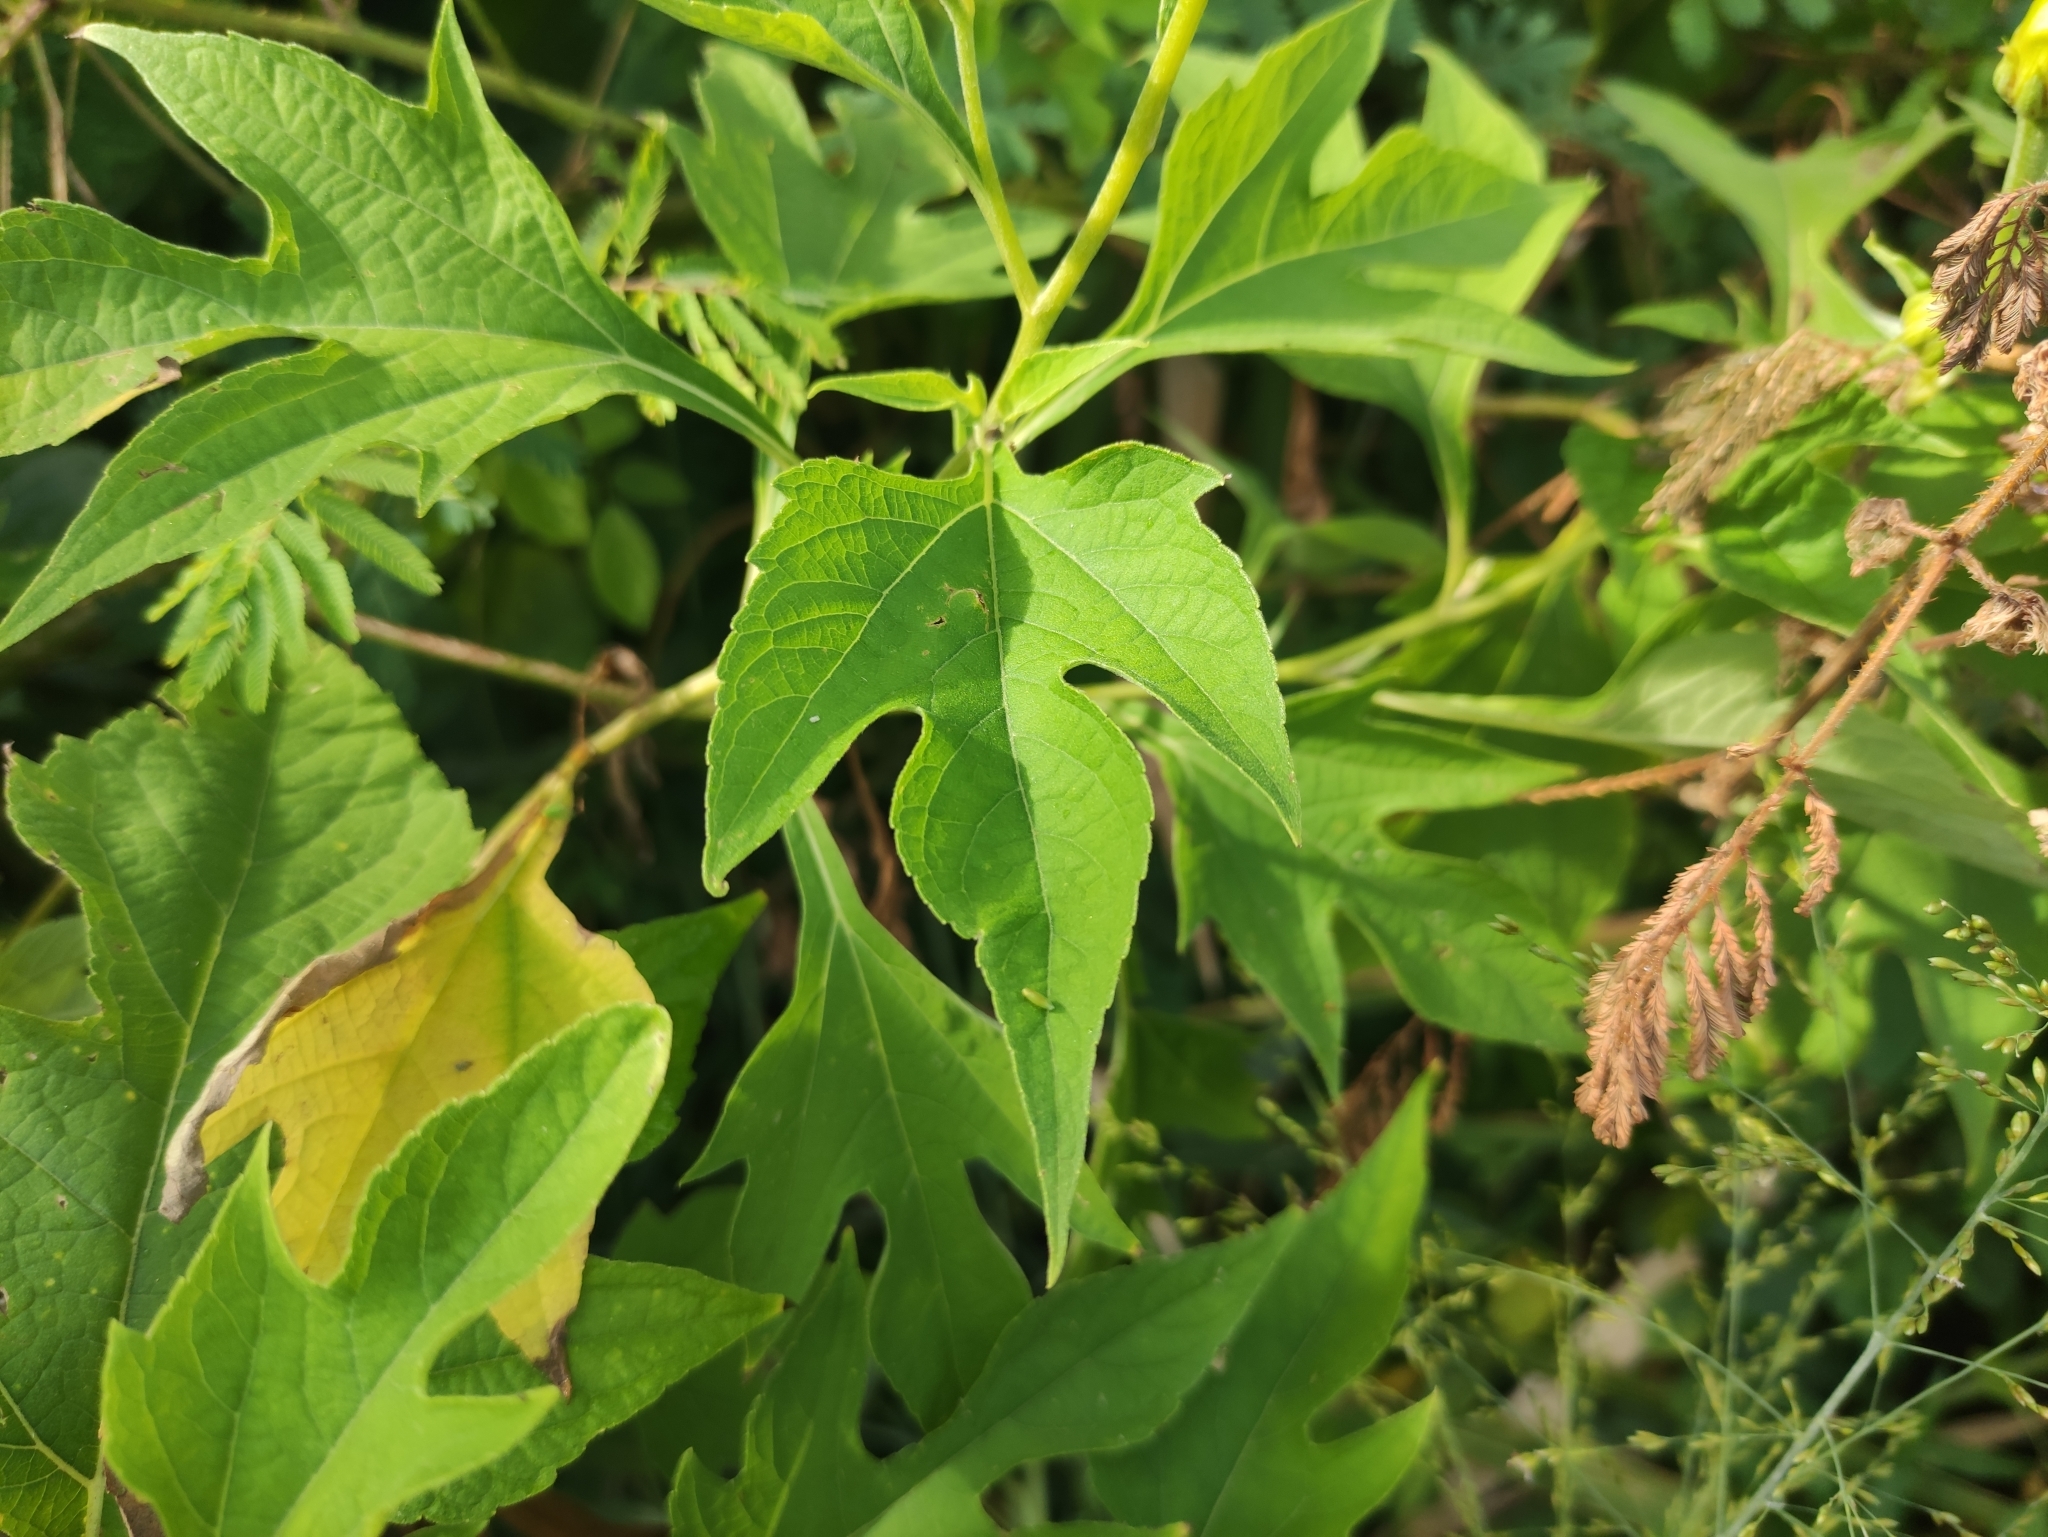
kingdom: Plantae
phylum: Tracheophyta
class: Magnoliopsida
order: Asterales
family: Asteraceae
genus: Tithonia
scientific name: Tithonia diversifolia
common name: Tree marigold
